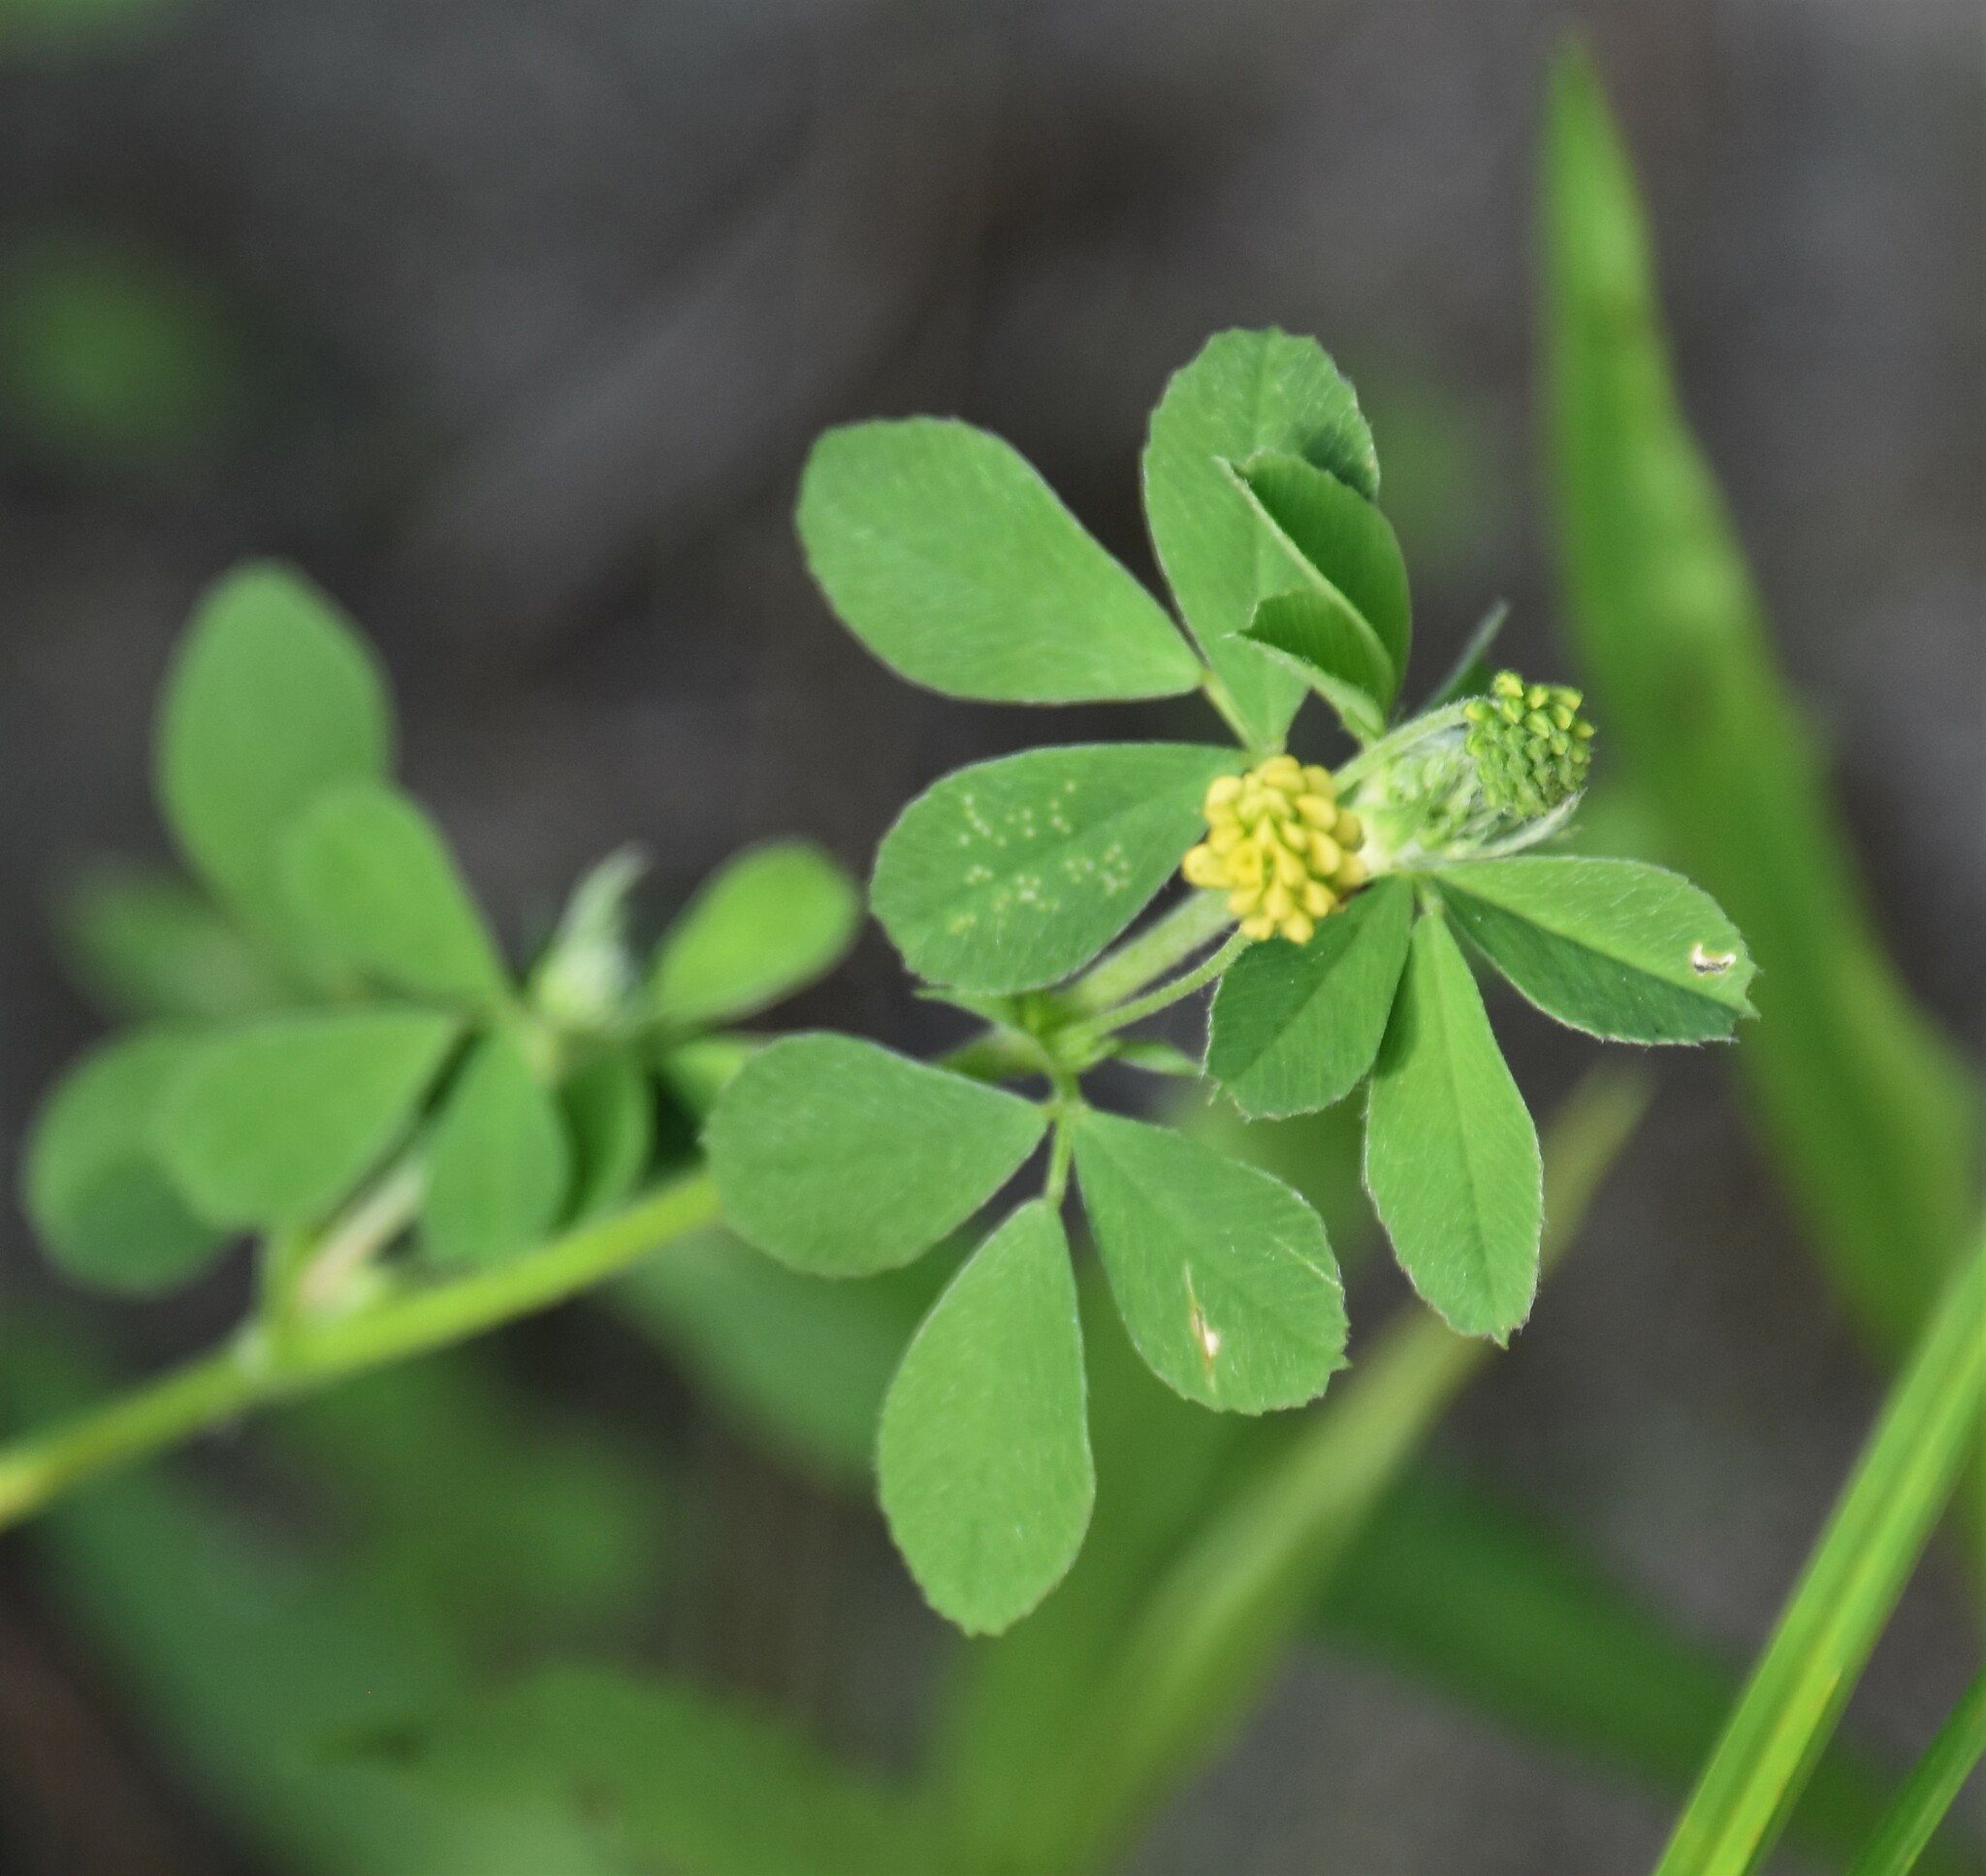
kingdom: Plantae
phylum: Tracheophyta
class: Magnoliopsida
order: Fabales
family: Fabaceae
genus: Medicago
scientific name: Medicago lupulina
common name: Black medick
